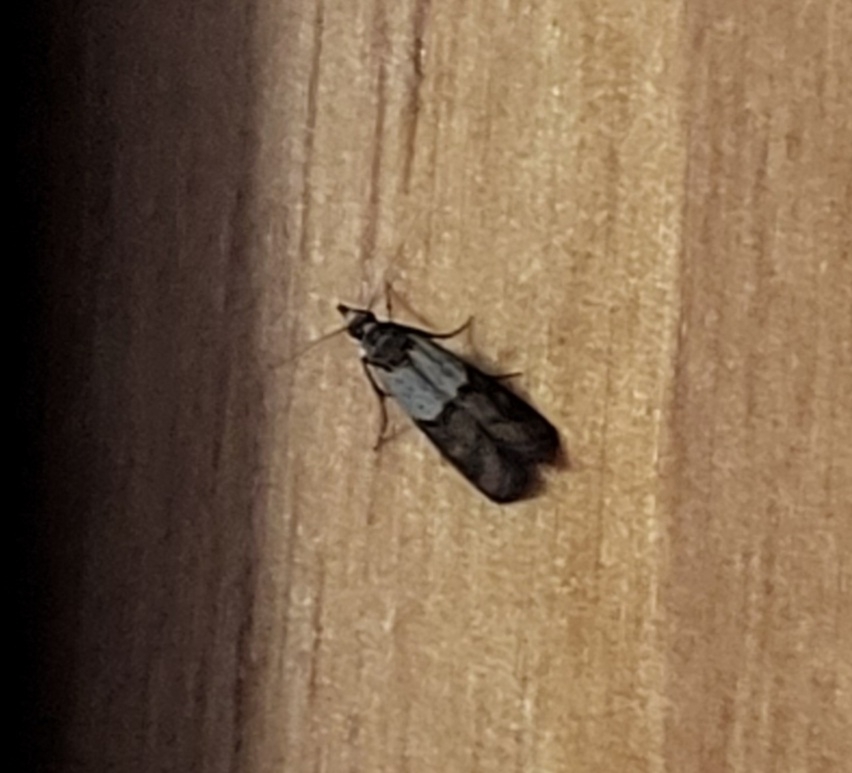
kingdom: Animalia
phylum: Arthropoda
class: Insecta
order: Lepidoptera
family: Pyralidae
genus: Plodia
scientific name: Plodia interpunctella
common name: Indian meal moth
